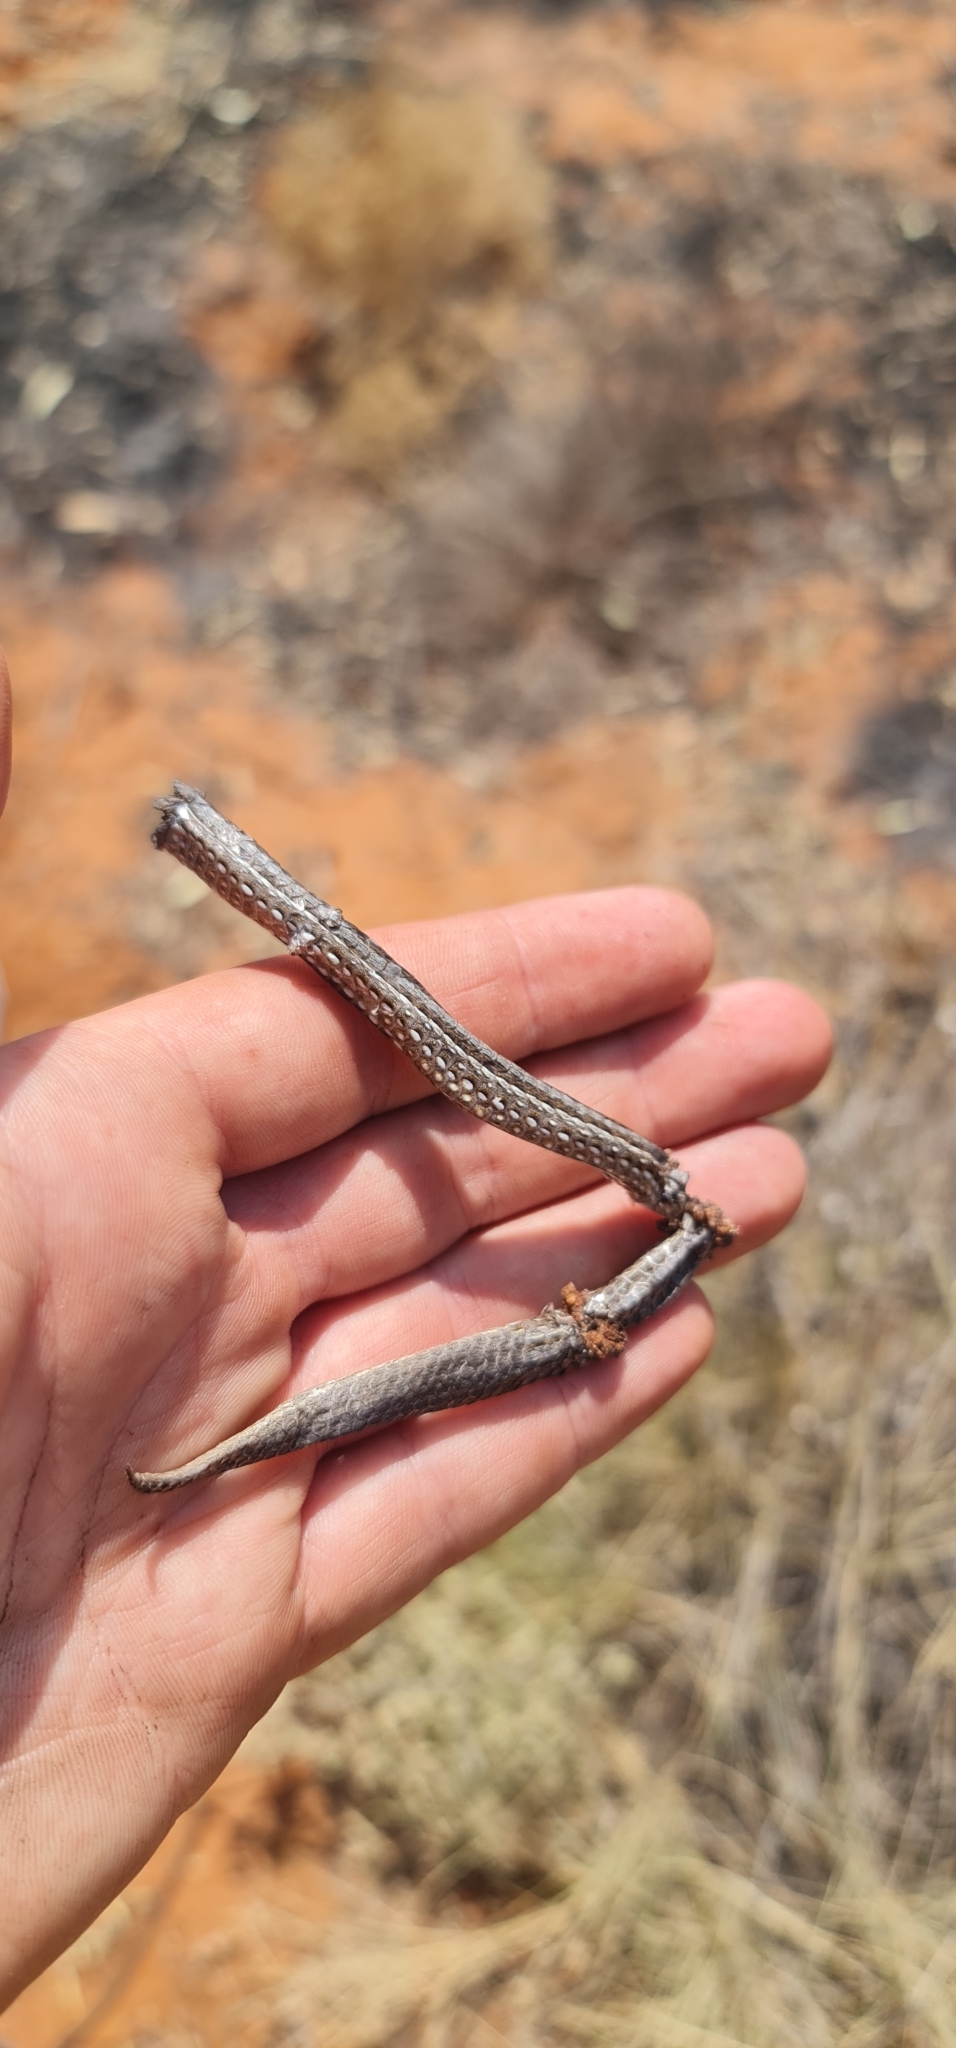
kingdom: Animalia
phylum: Chordata
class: Squamata
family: Pygopodidae
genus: Lialis
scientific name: Lialis burtonis
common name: Burton's legless lizard
